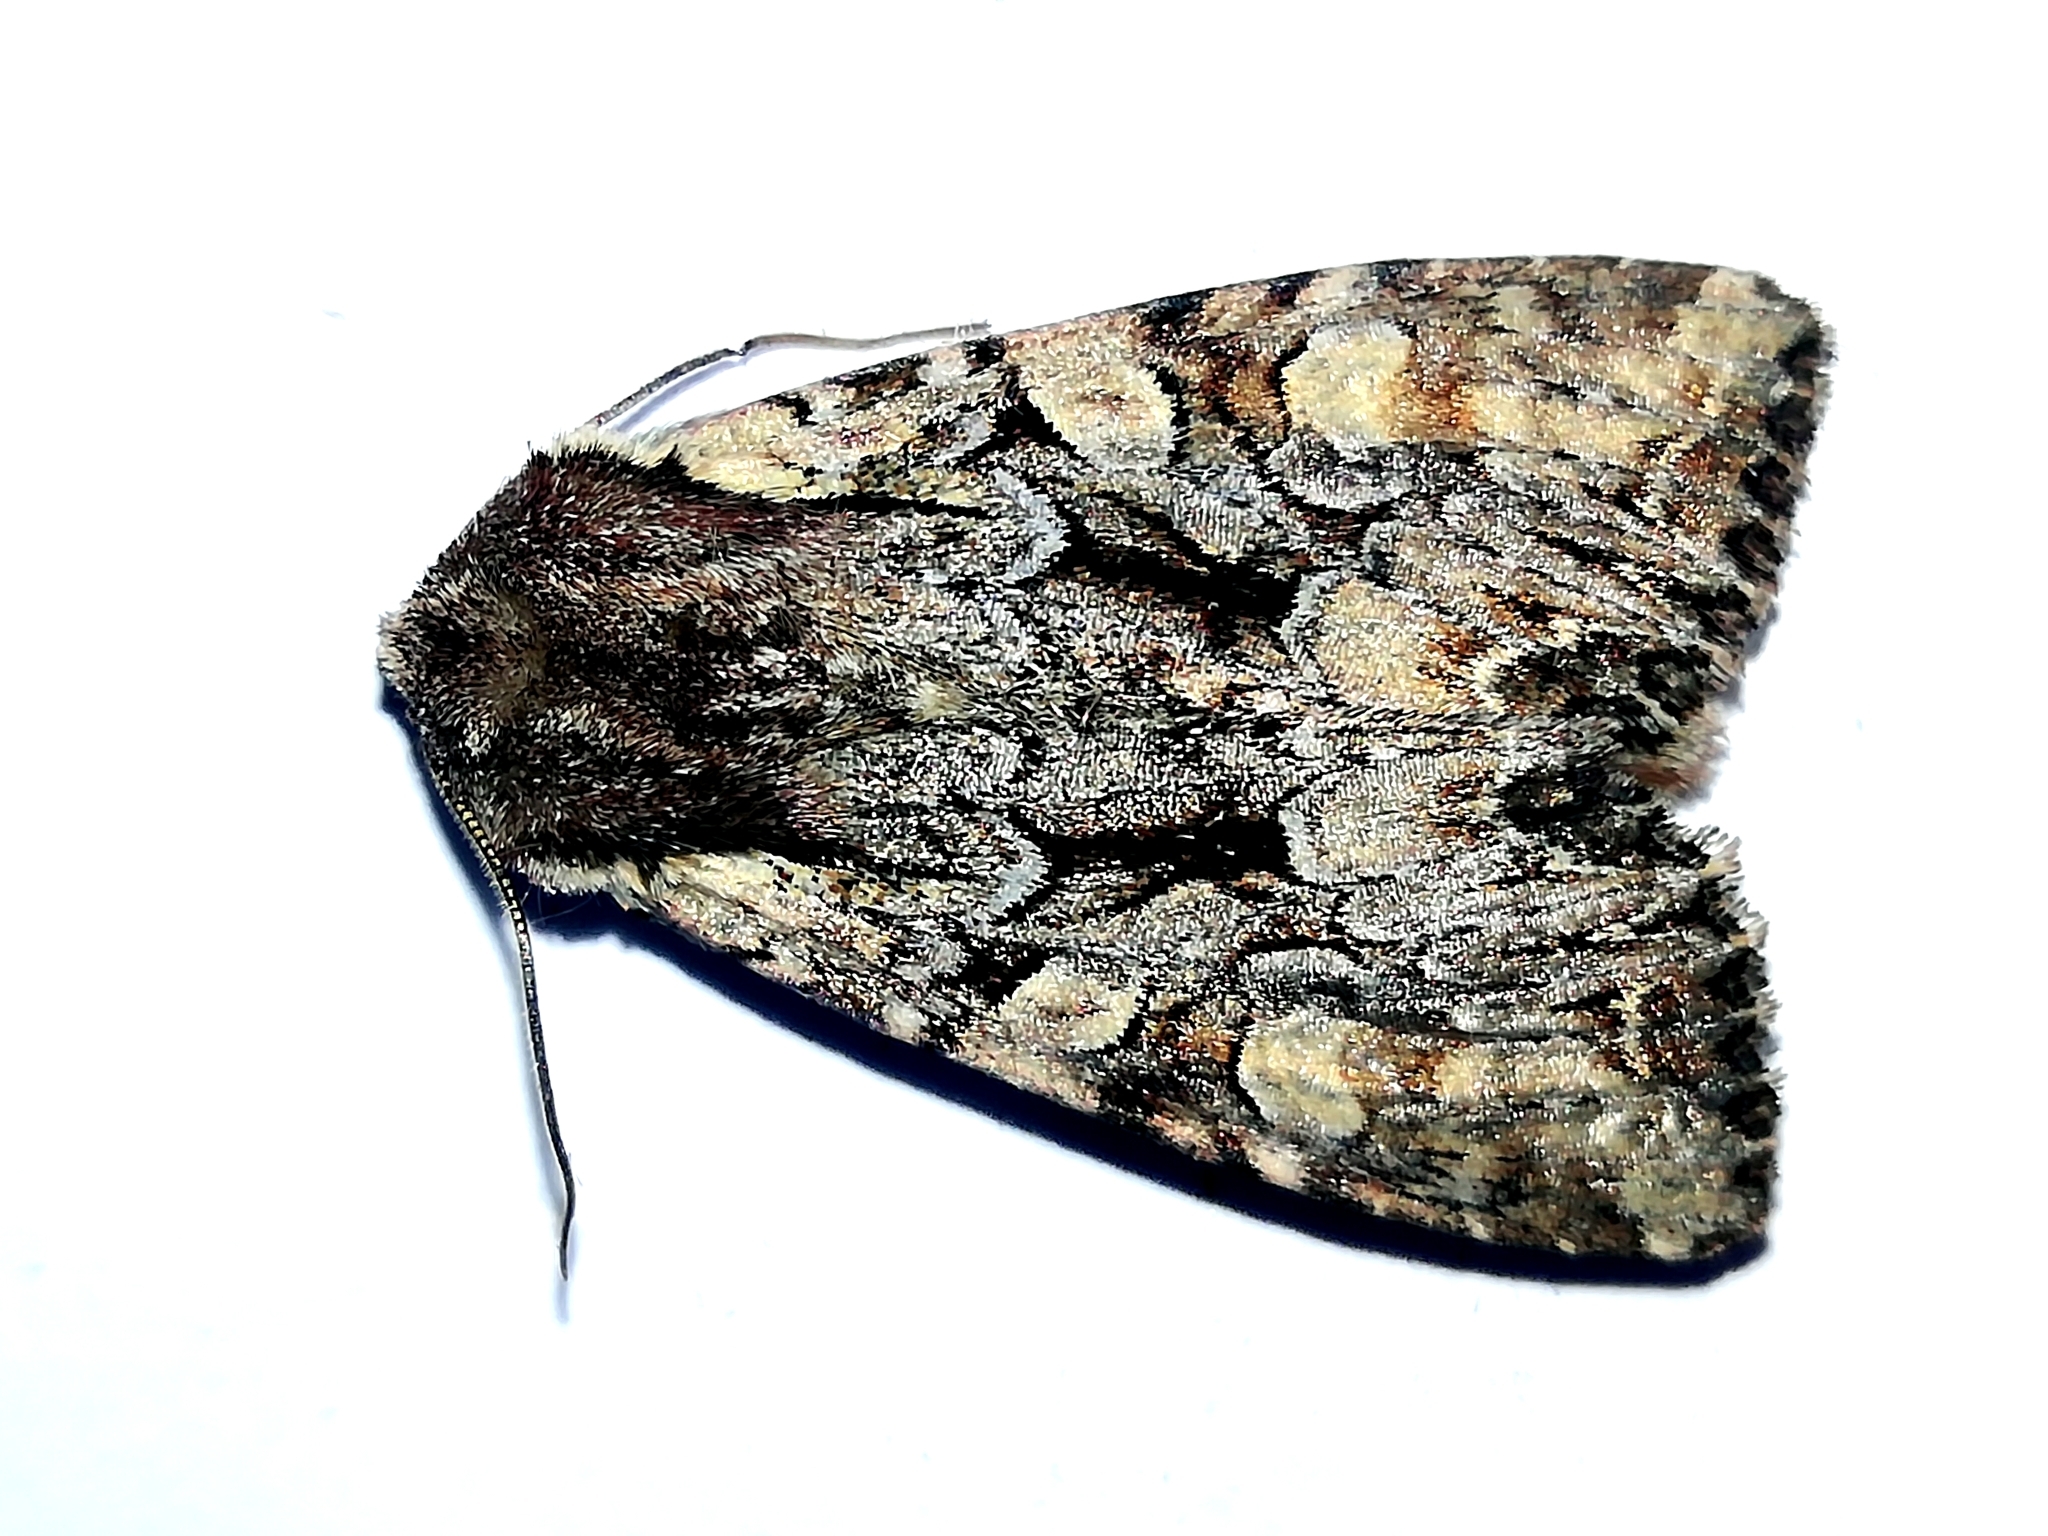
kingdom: Animalia
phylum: Arthropoda
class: Insecta
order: Lepidoptera
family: Noctuidae
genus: Lacanobia
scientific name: Lacanobia thalassina
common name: Pale-shouldered brocade
